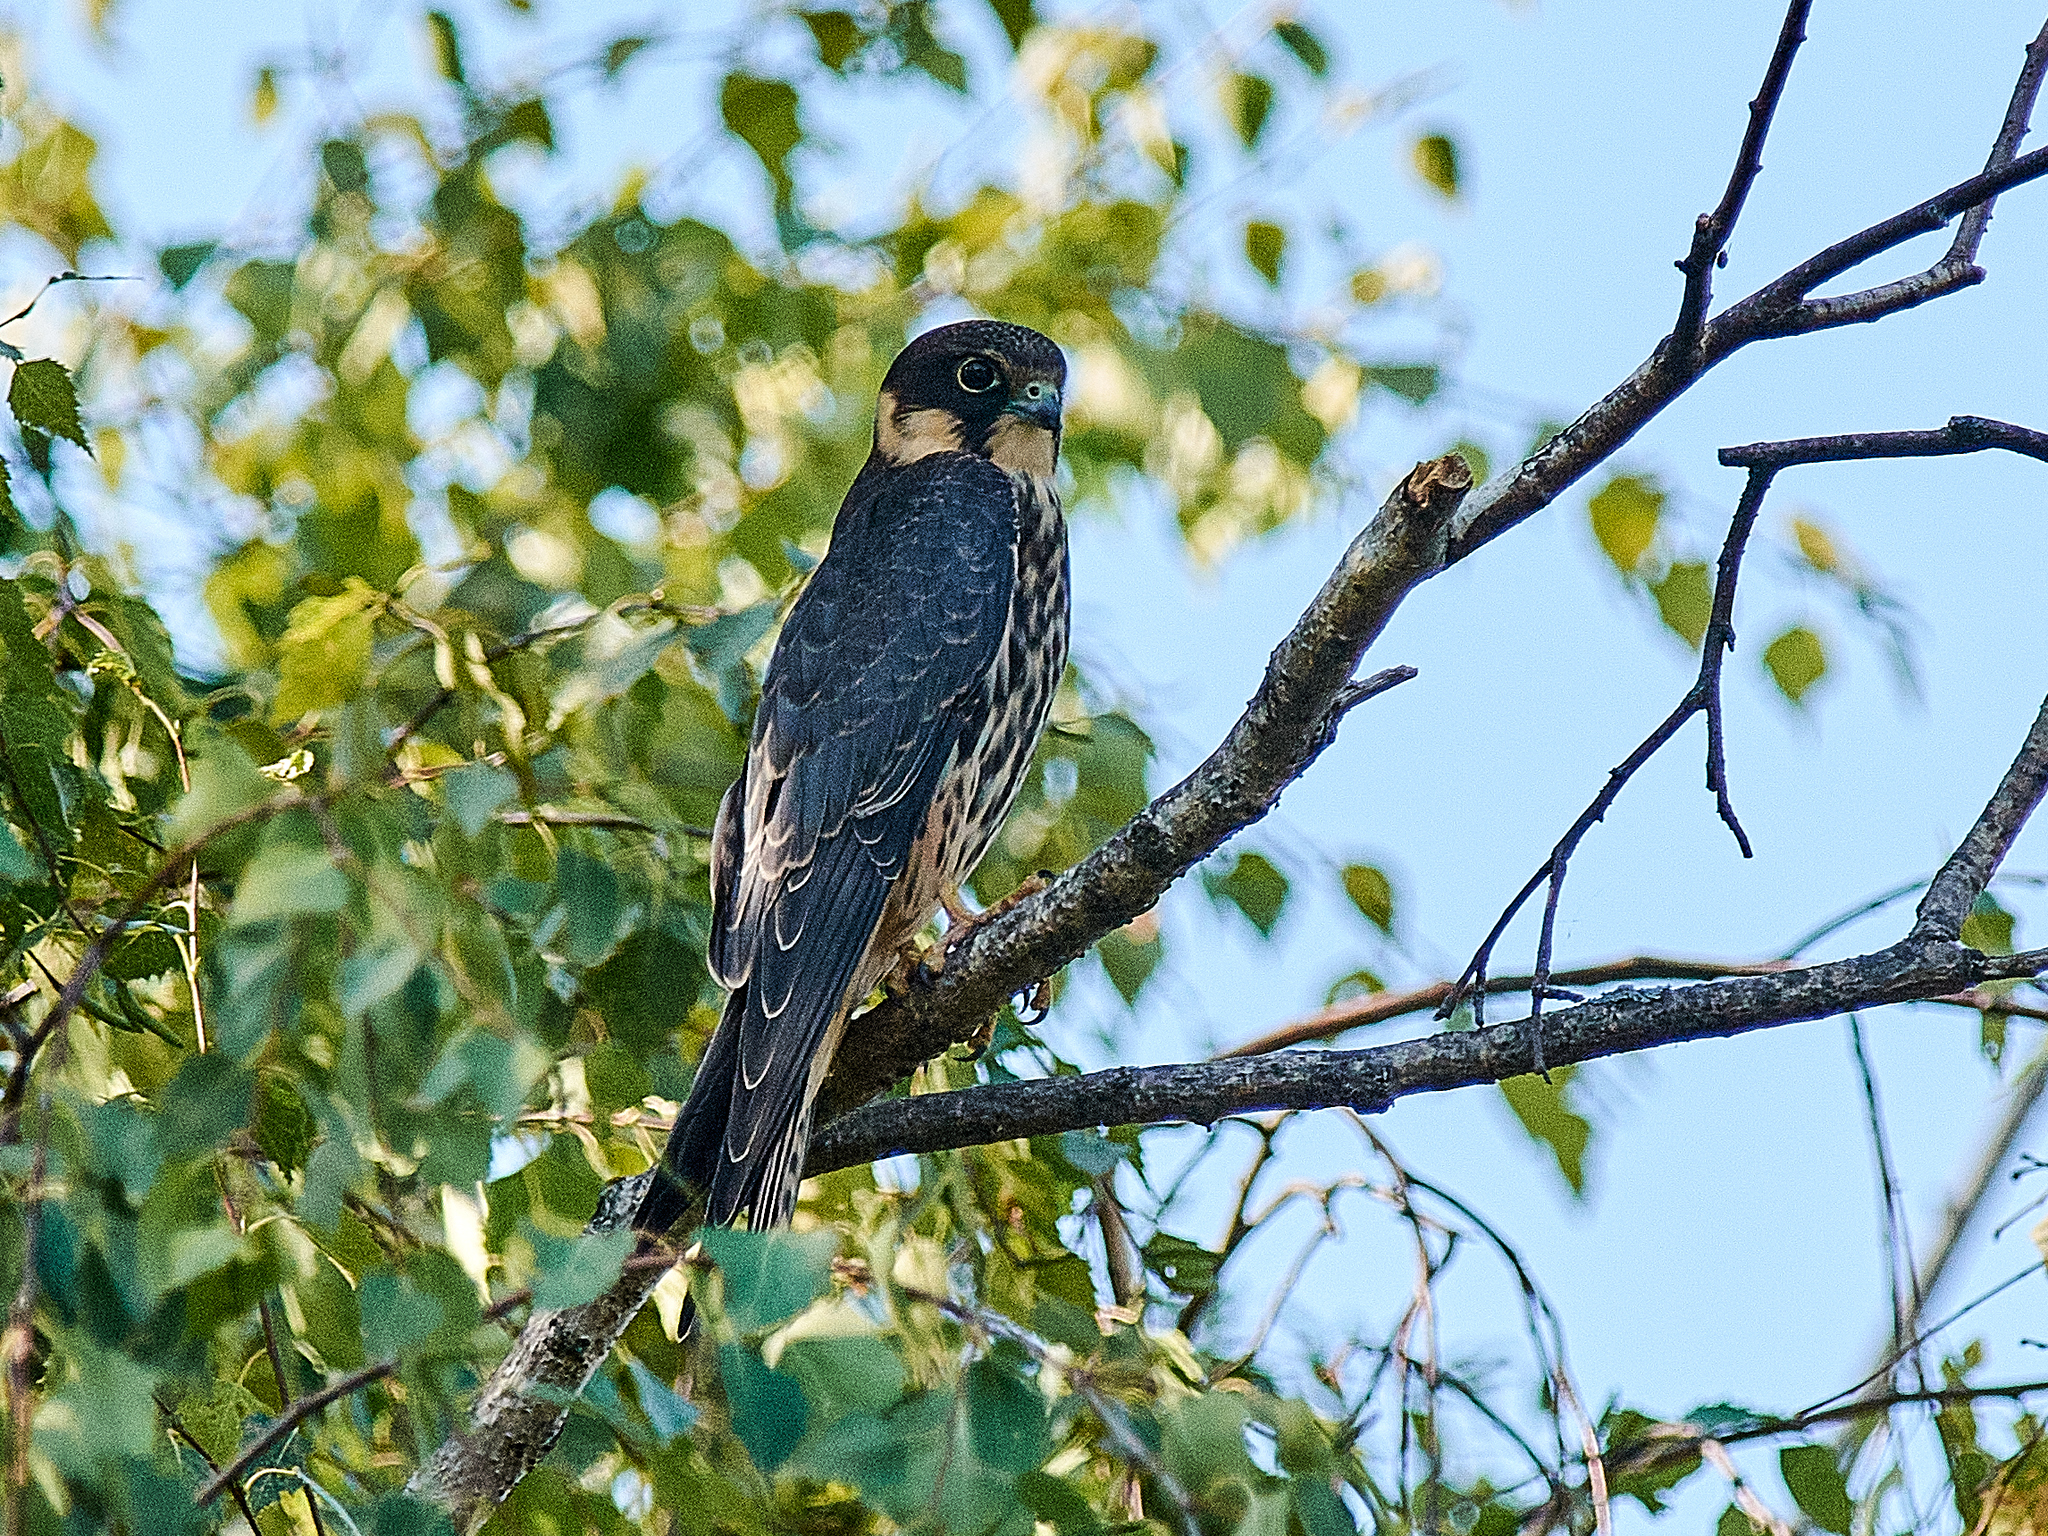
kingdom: Animalia
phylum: Chordata
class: Aves
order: Falconiformes
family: Falconidae
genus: Falco
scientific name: Falco subbuteo
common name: Eurasian hobby
